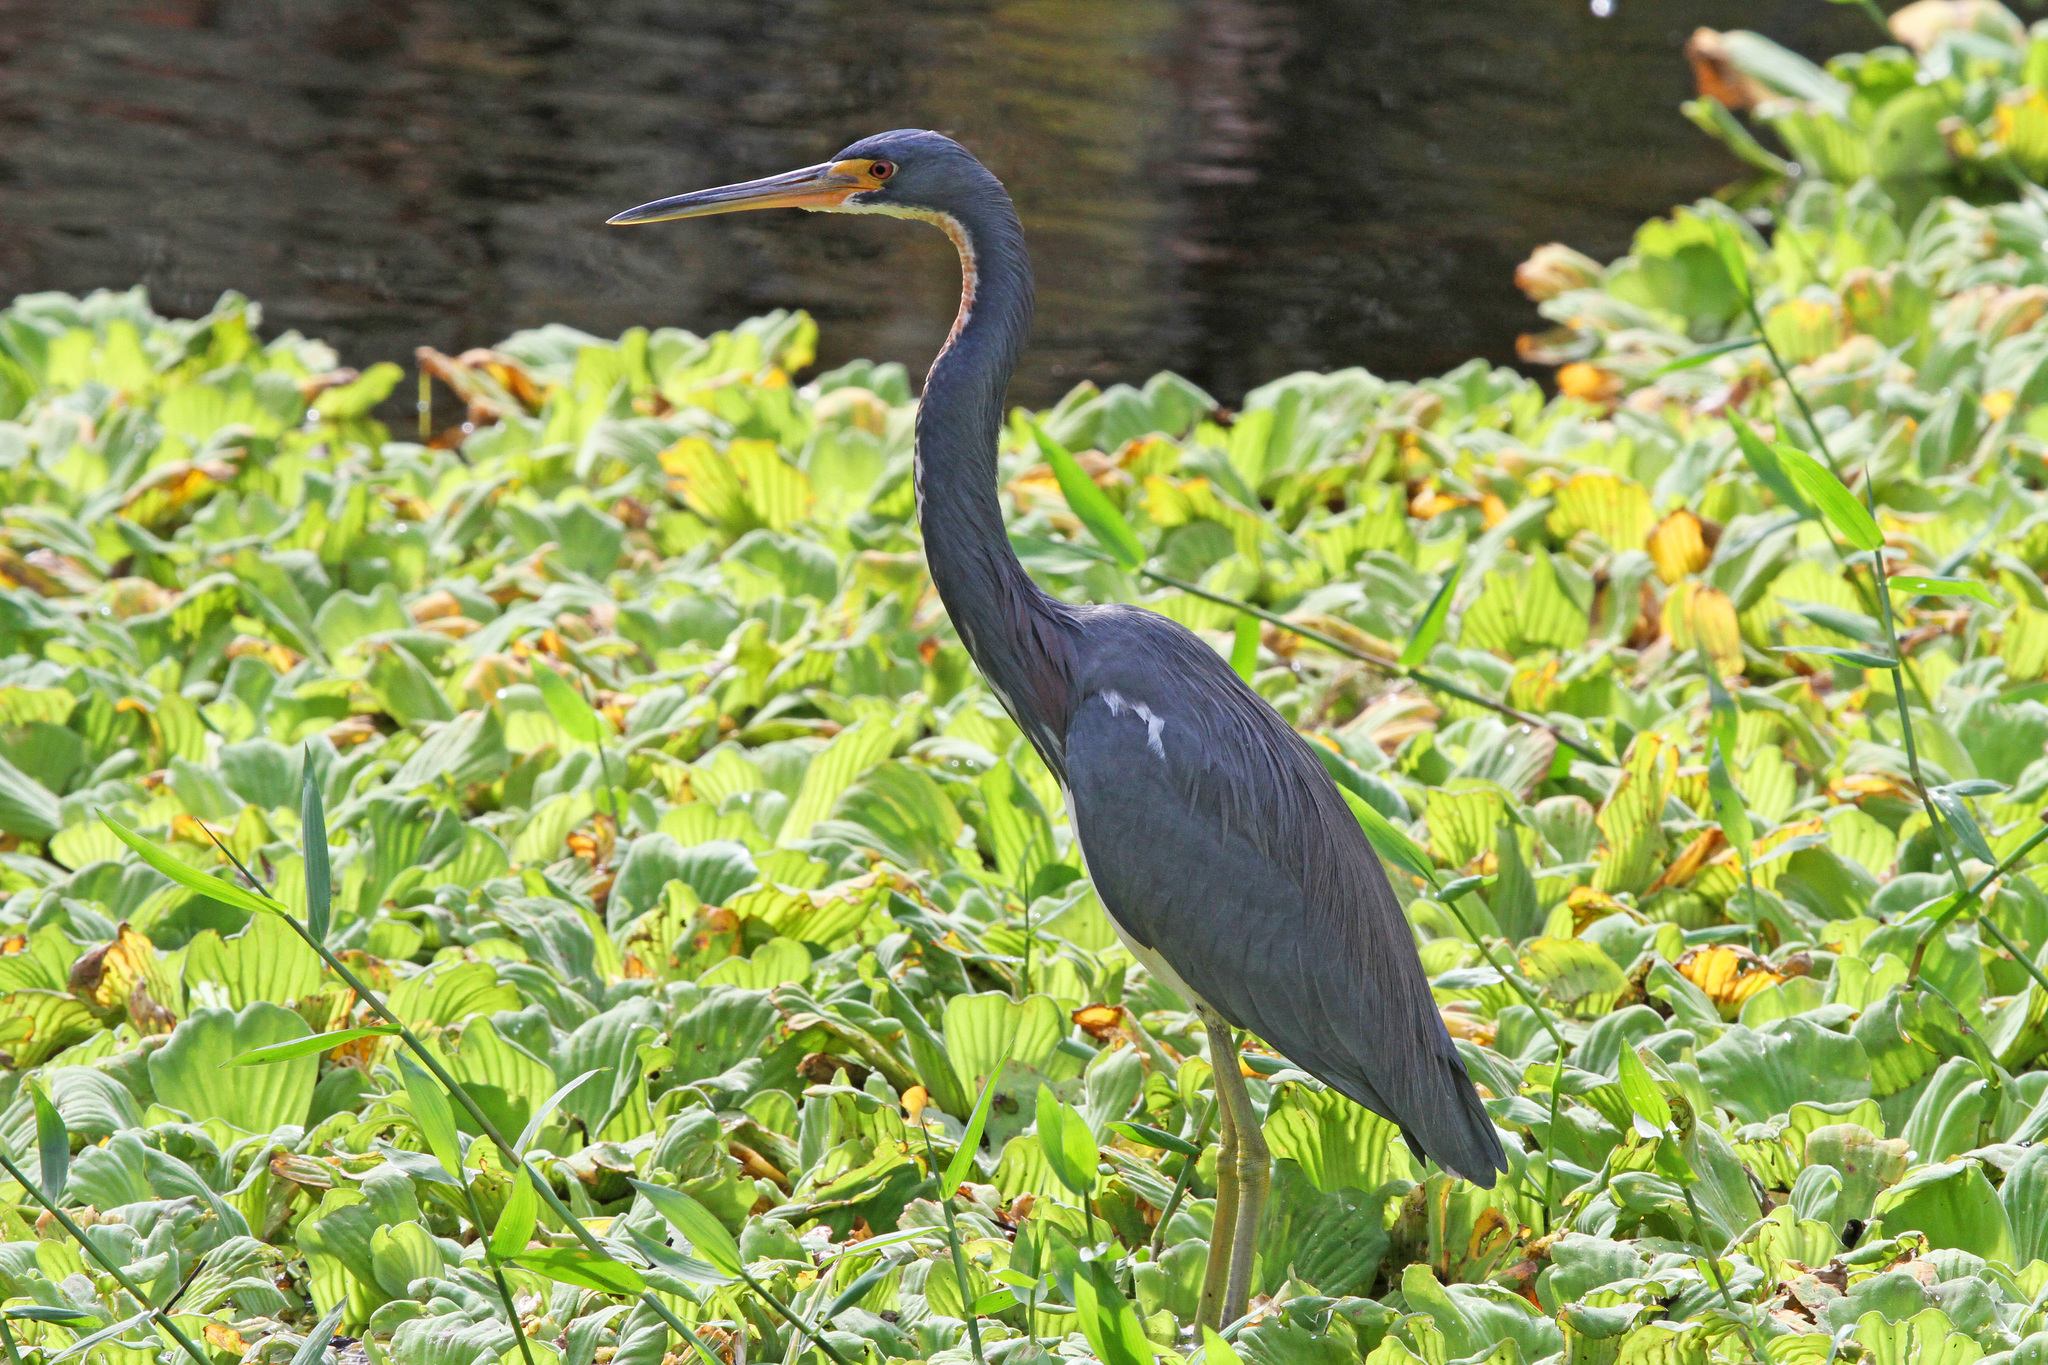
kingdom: Animalia
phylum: Chordata
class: Aves
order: Pelecaniformes
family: Ardeidae
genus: Egretta
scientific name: Egretta tricolor
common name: Tricolored heron
